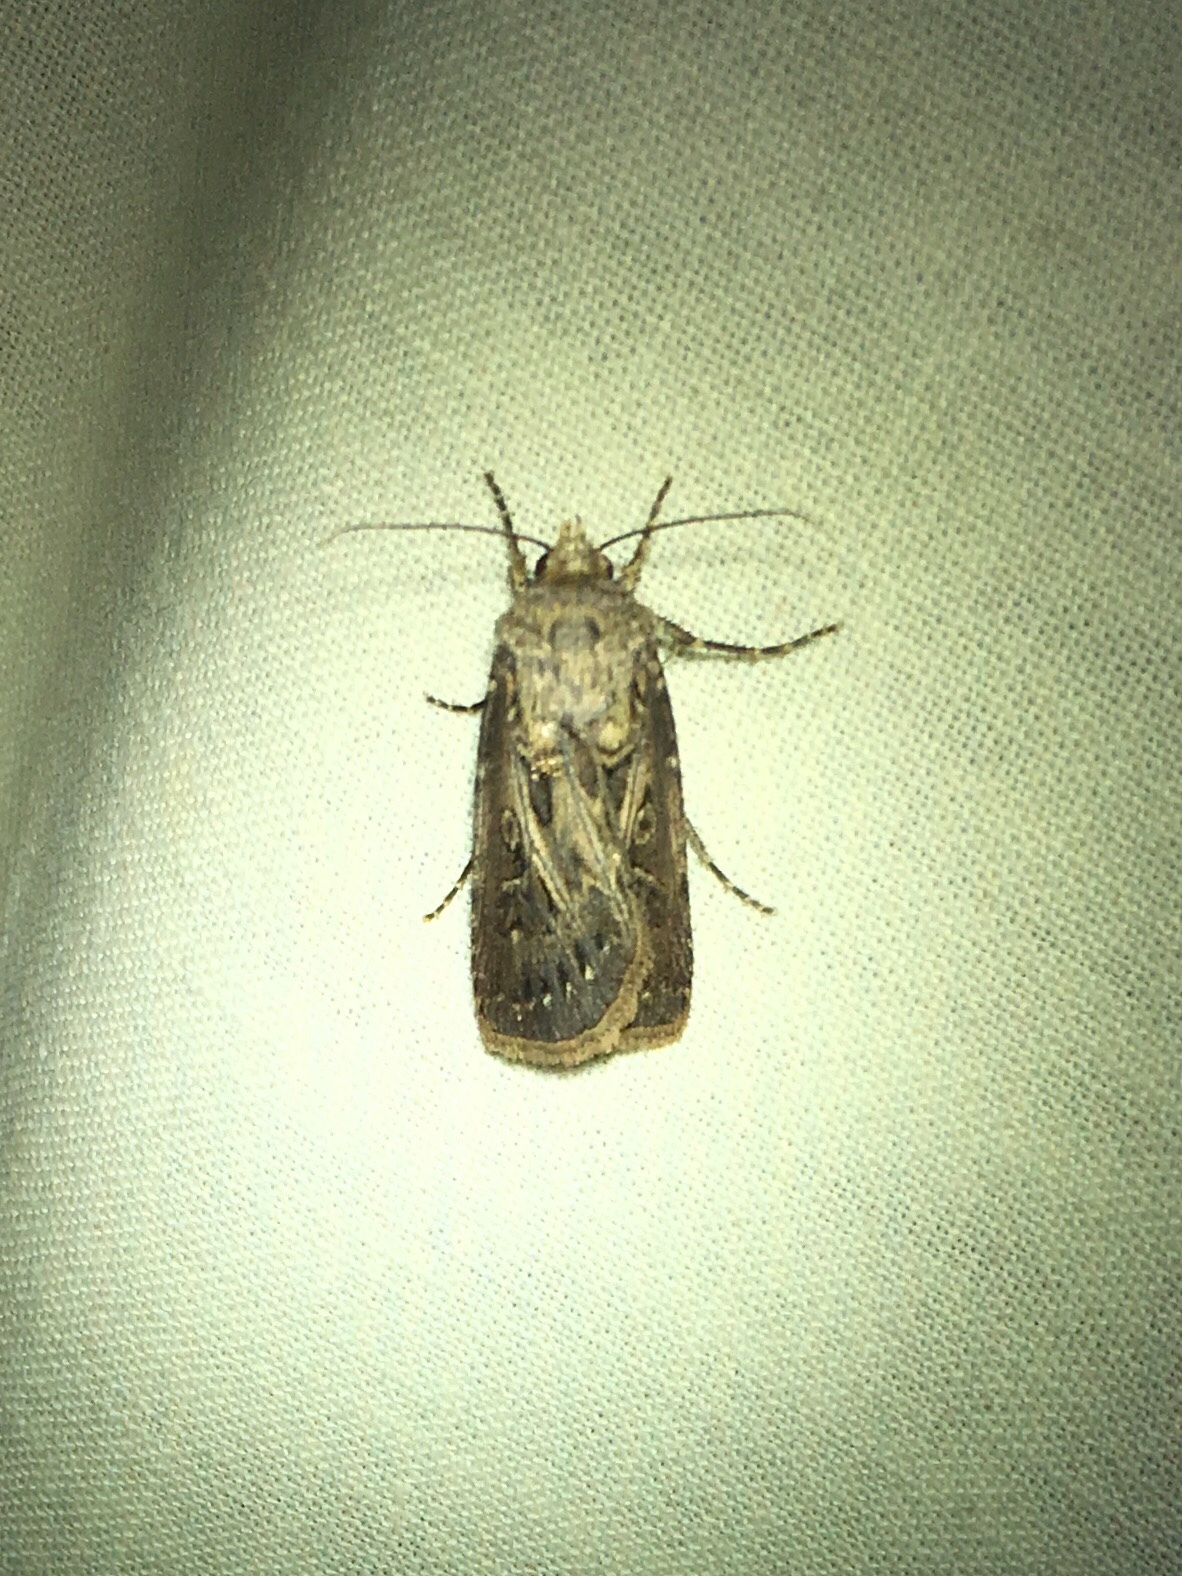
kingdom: Animalia
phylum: Arthropoda
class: Insecta
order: Lepidoptera
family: Noctuidae
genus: Agrotis
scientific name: Agrotis gladiaria
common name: Claybacked cutworm
